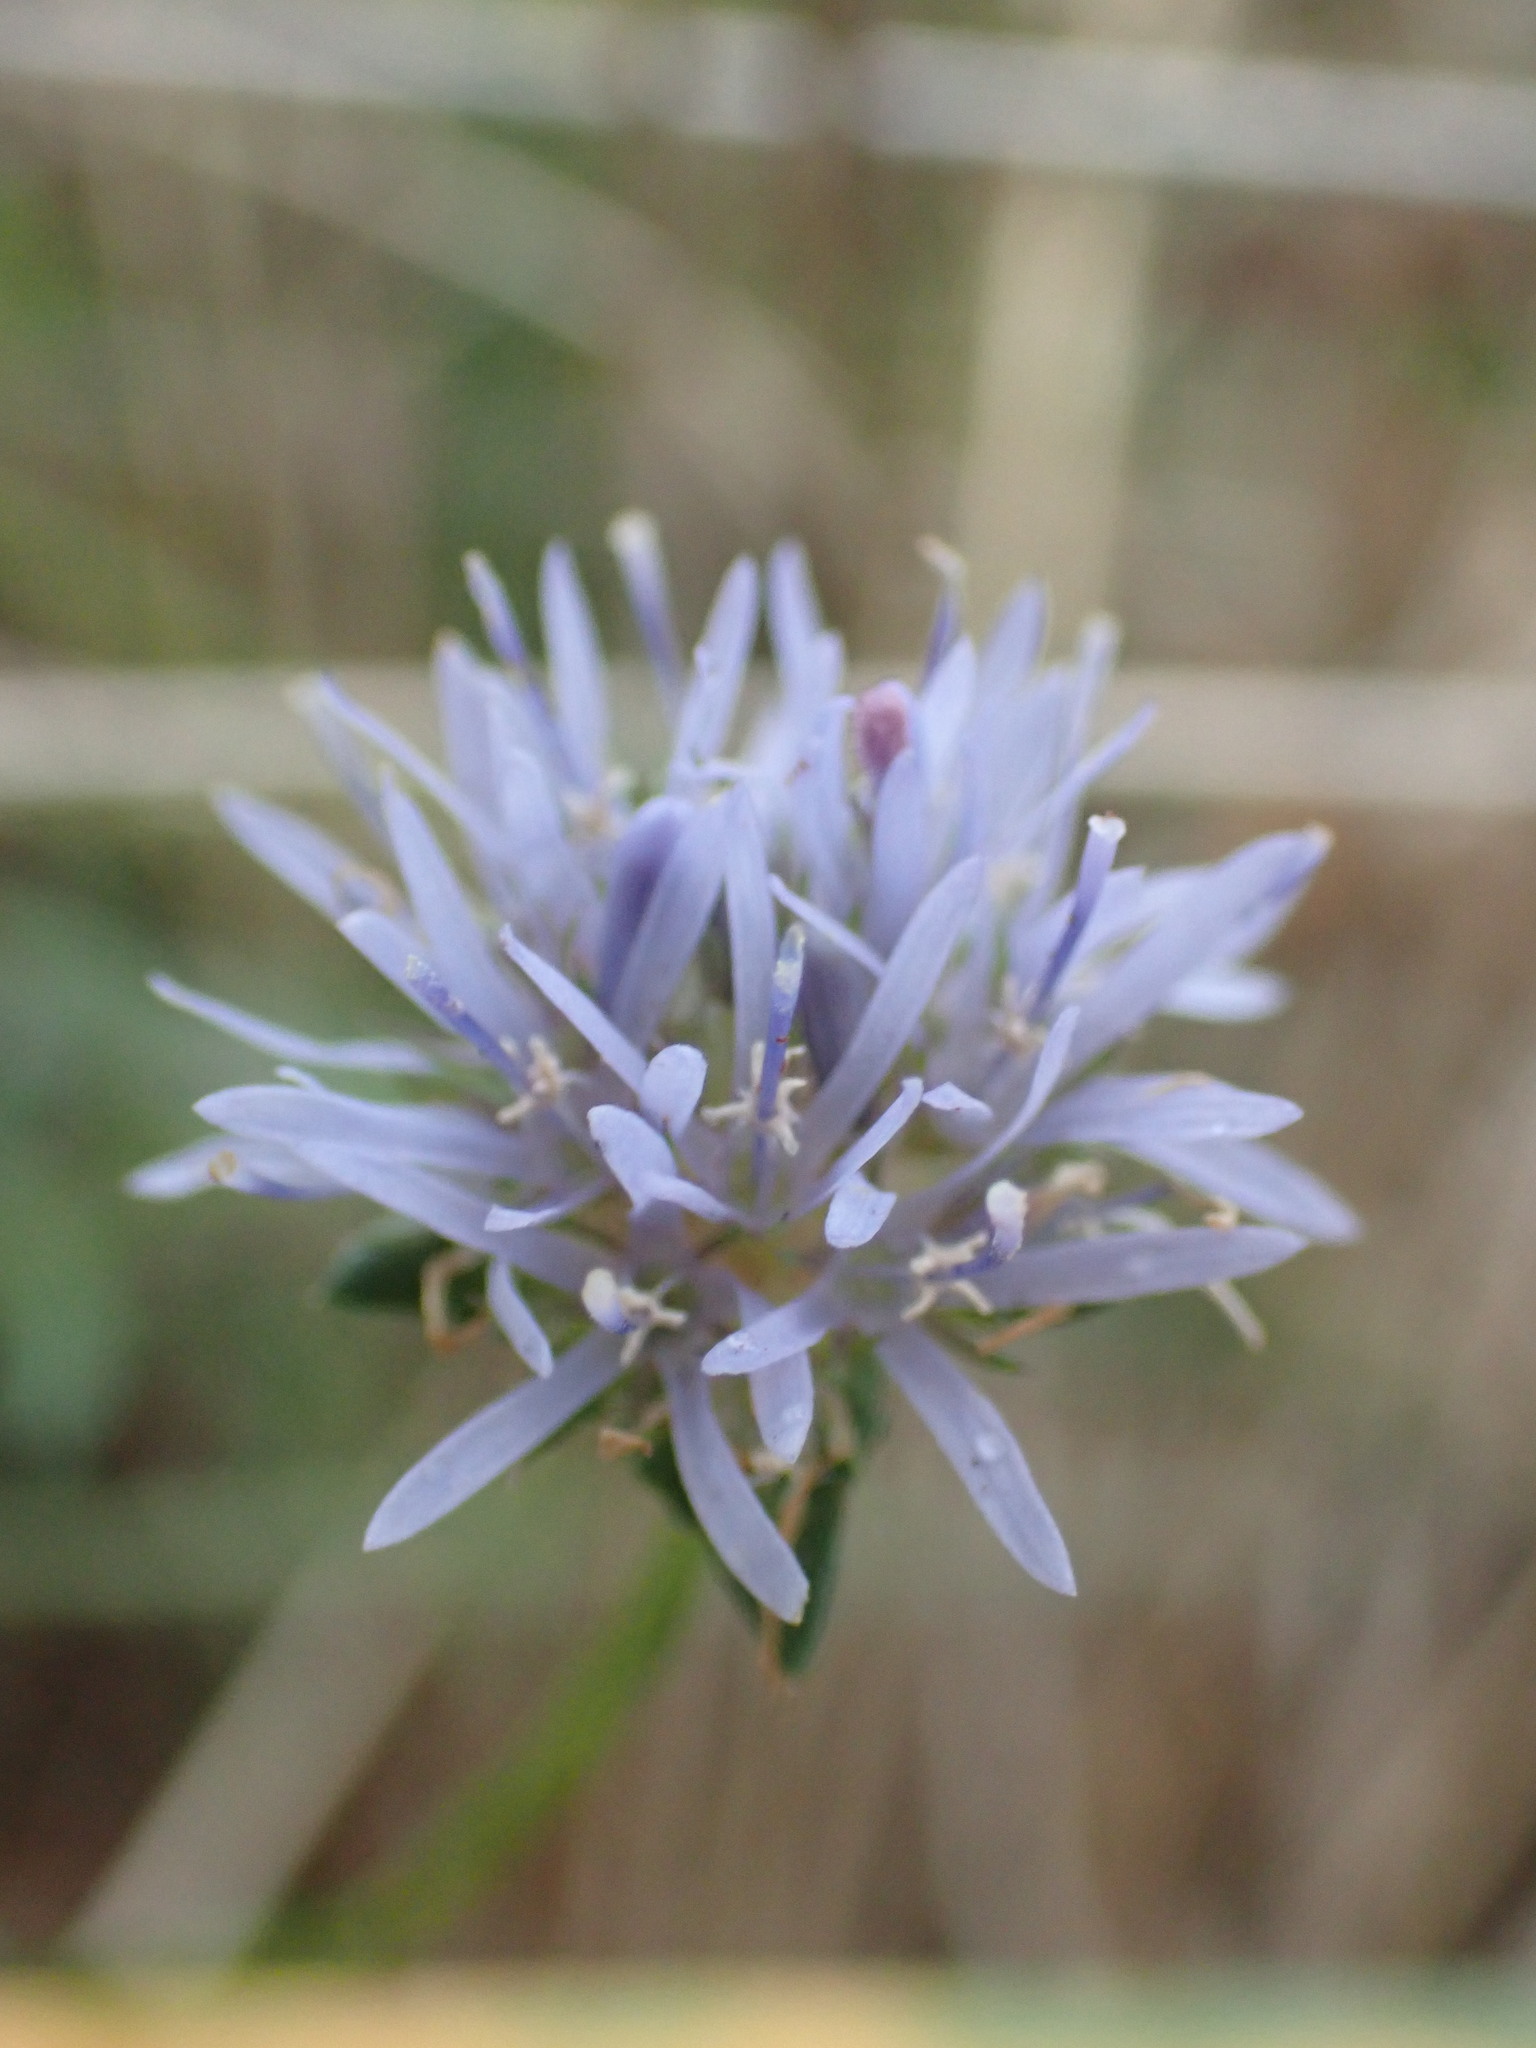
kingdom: Plantae
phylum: Tracheophyta
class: Magnoliopsida
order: Asterales
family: Campanulaceae
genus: Jasione
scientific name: Jasione montana
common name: Sheep's-bit
